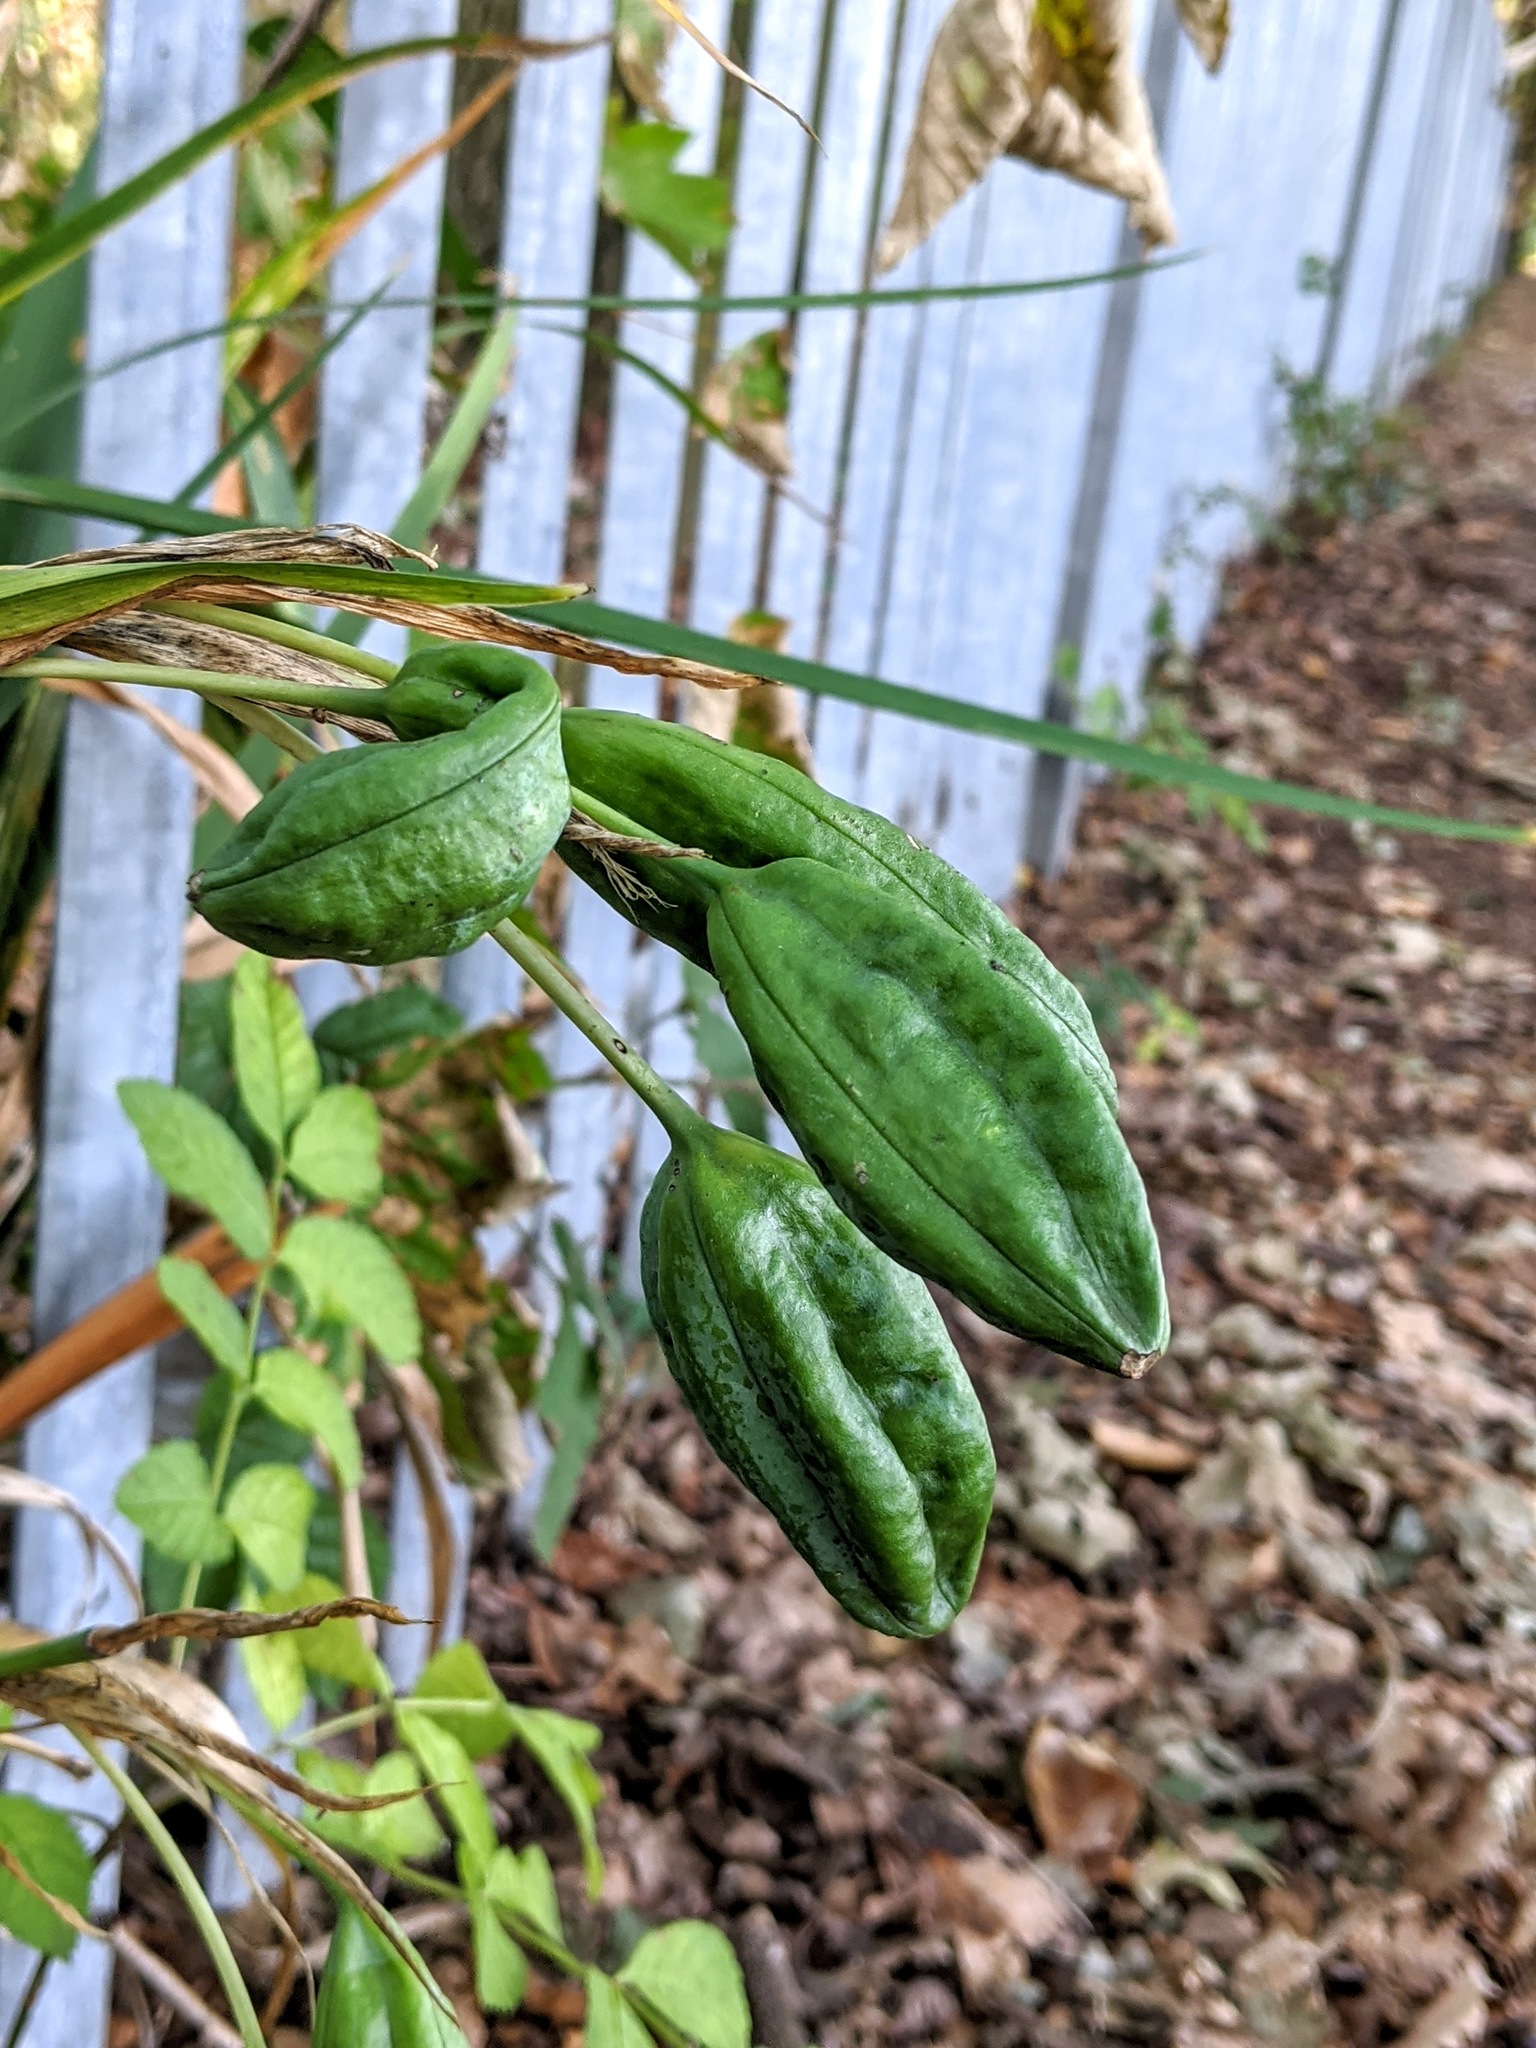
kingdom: Plantae
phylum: Tracheophyta
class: Liliopsida
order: Asparagales
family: Iridaceae
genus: Iris
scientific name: Iris foetidissima
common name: Stinking iris
